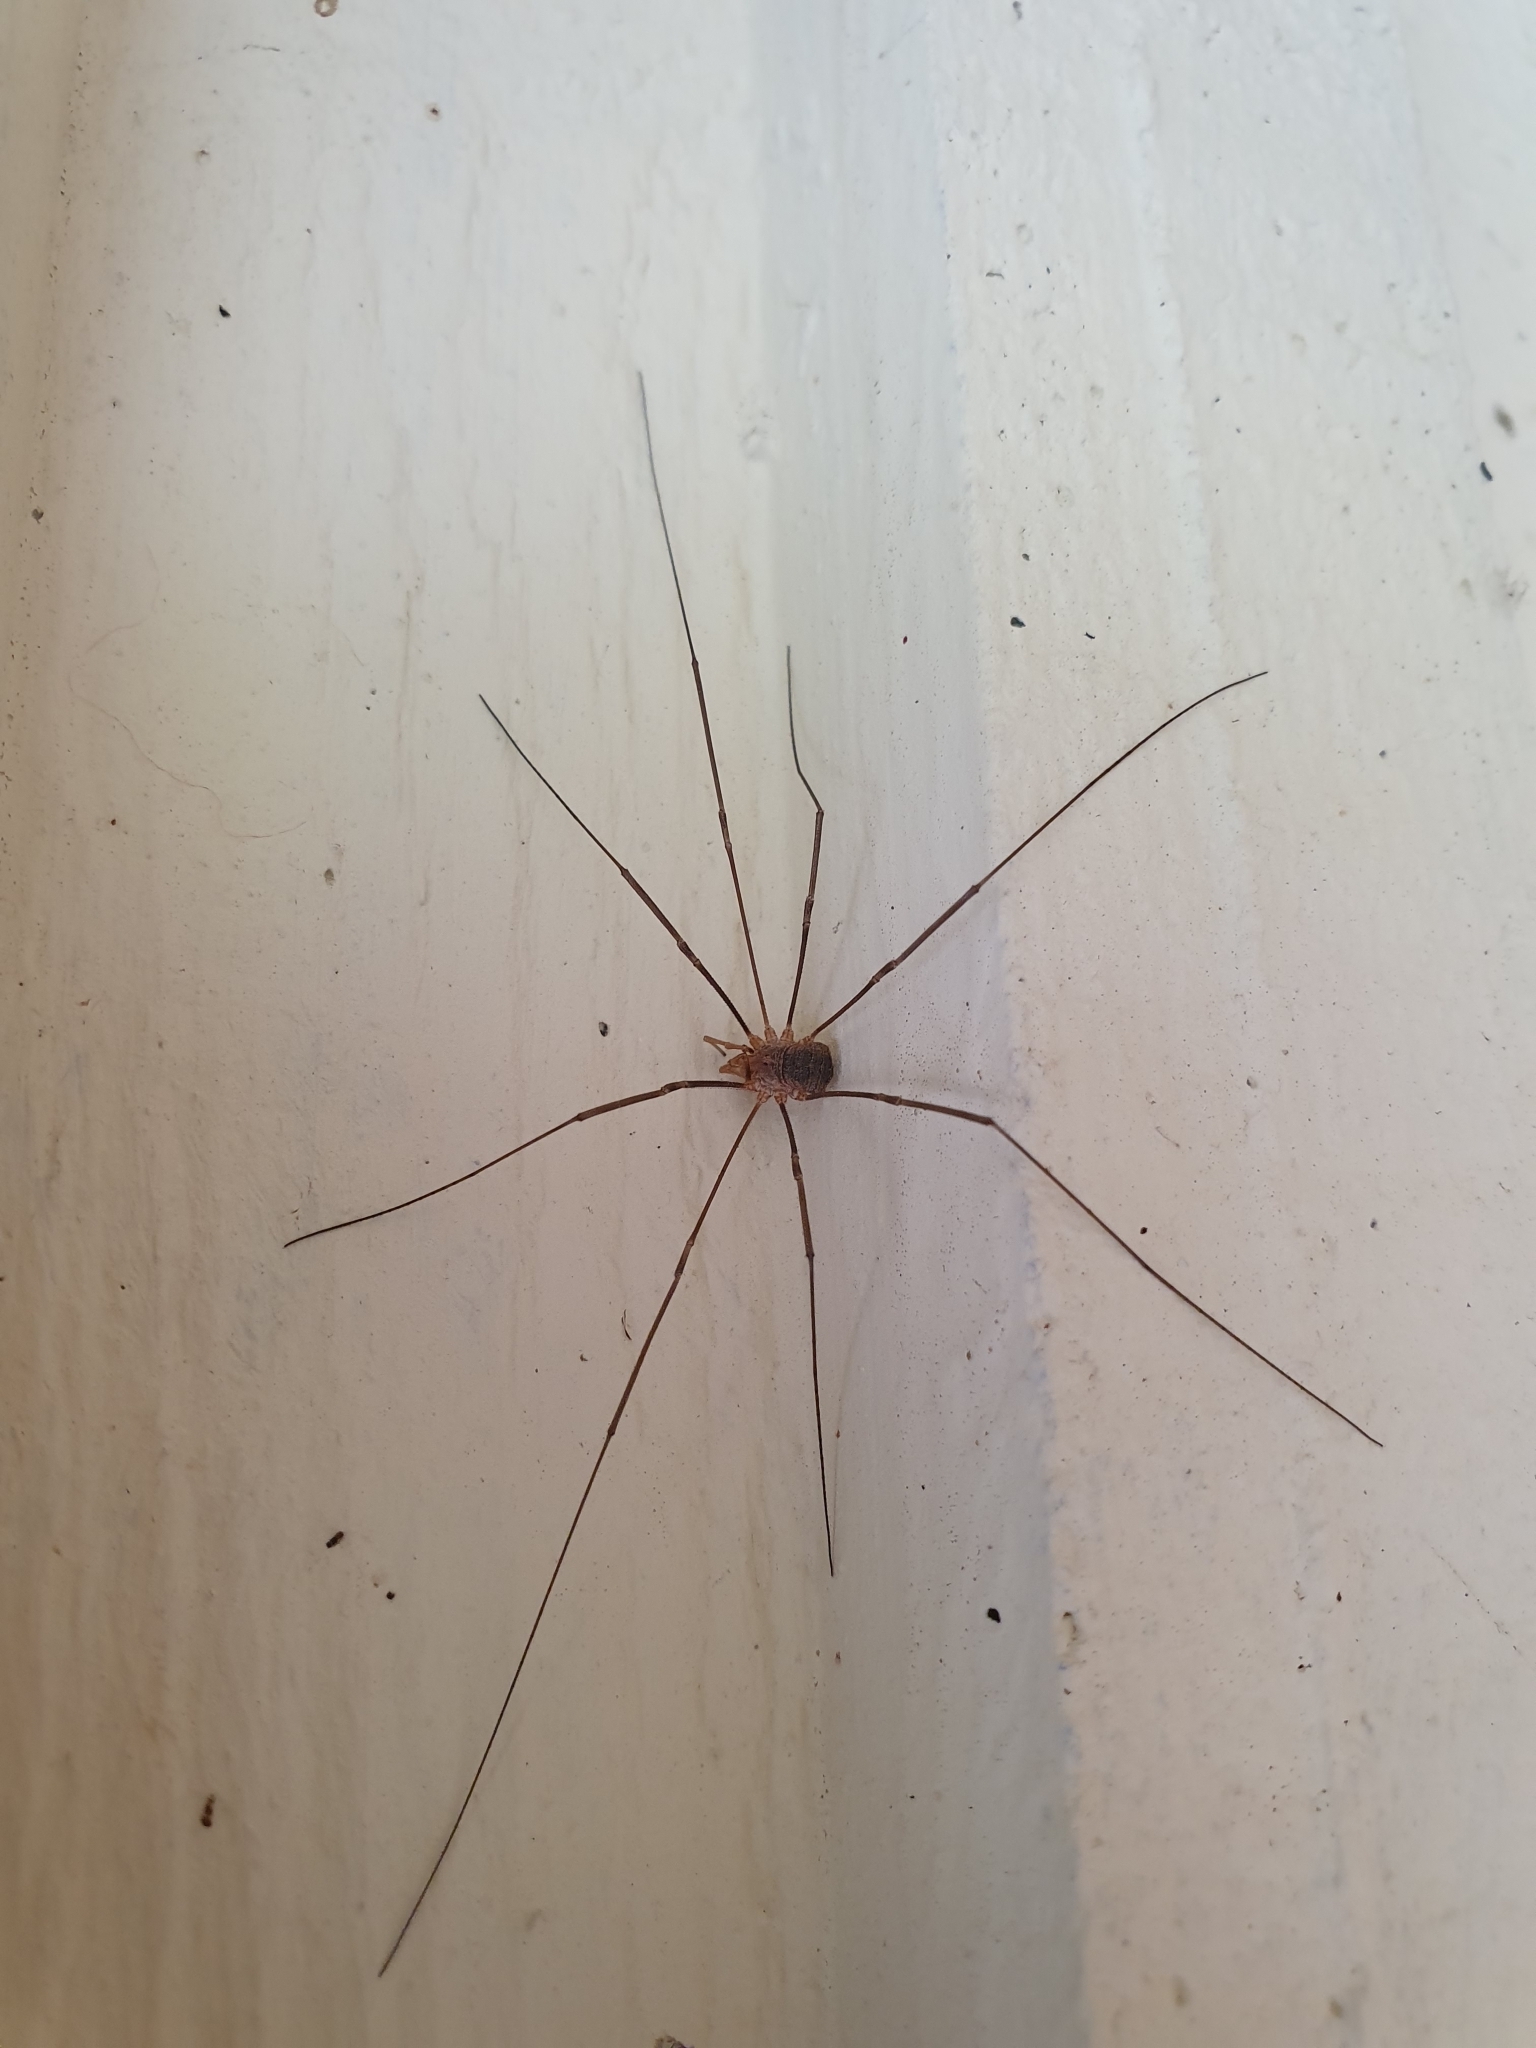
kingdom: Animalia
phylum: Arthropoda
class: Arachnida
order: Opiliones
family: Phalangiidae
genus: Phalangium
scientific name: Phalangium opilio
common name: Daddy longleg
